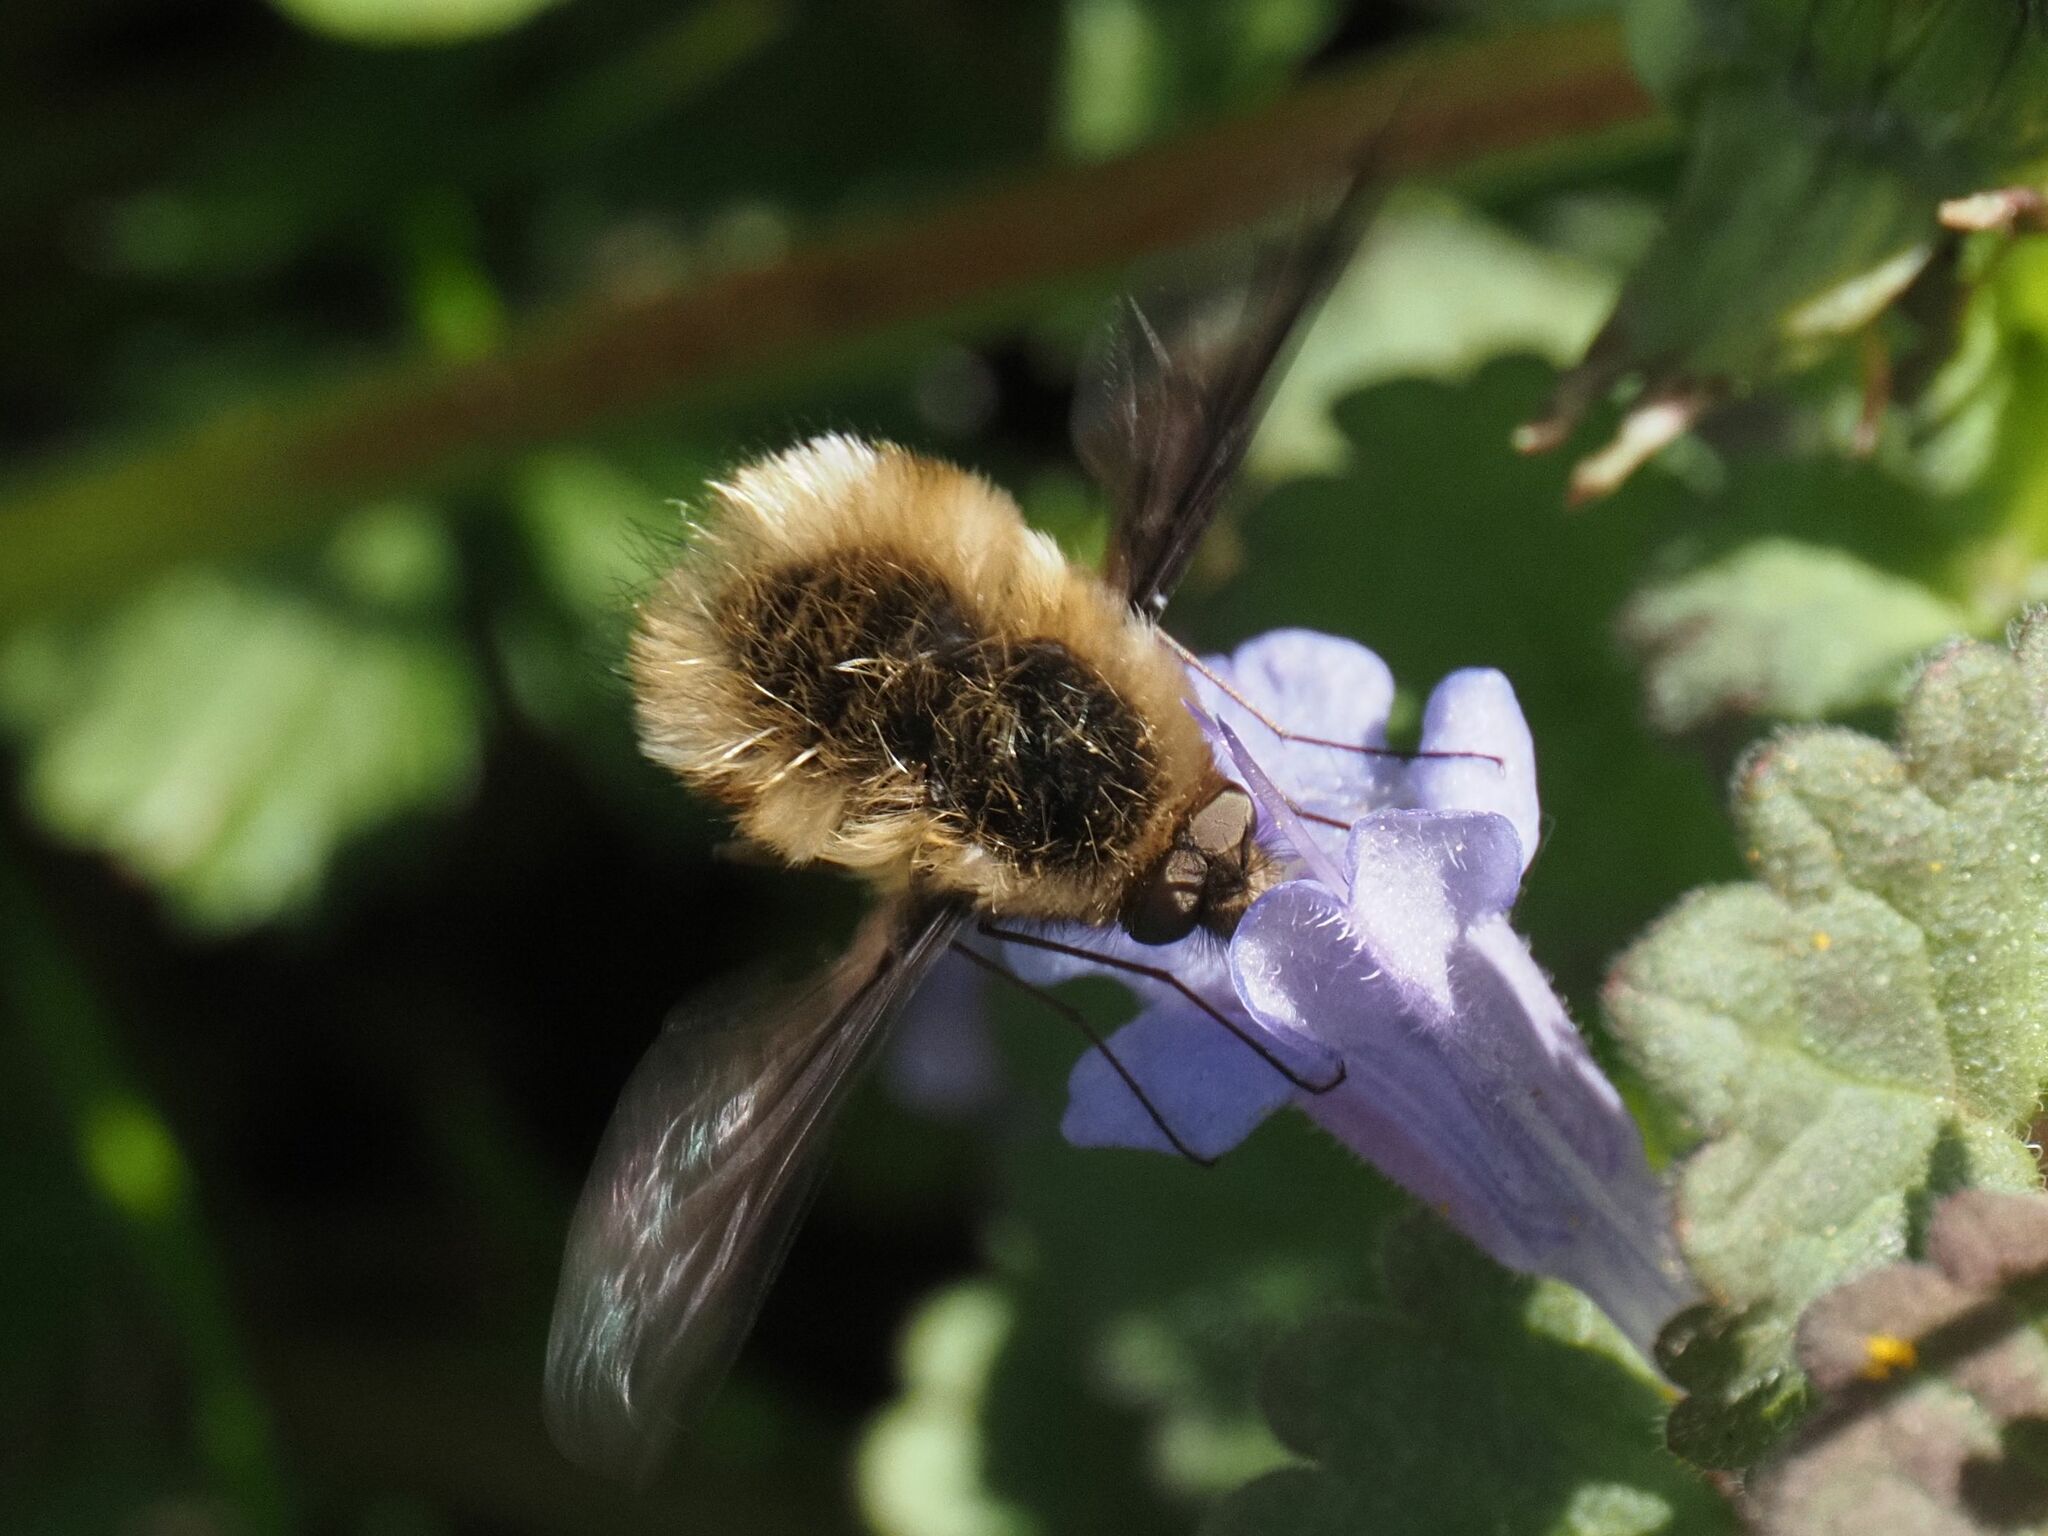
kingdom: Animalia
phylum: Arthropoda
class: Insecta
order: Diptera
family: Bombyliidae
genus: Bombylius
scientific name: Bombylius major
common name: Bee fly
